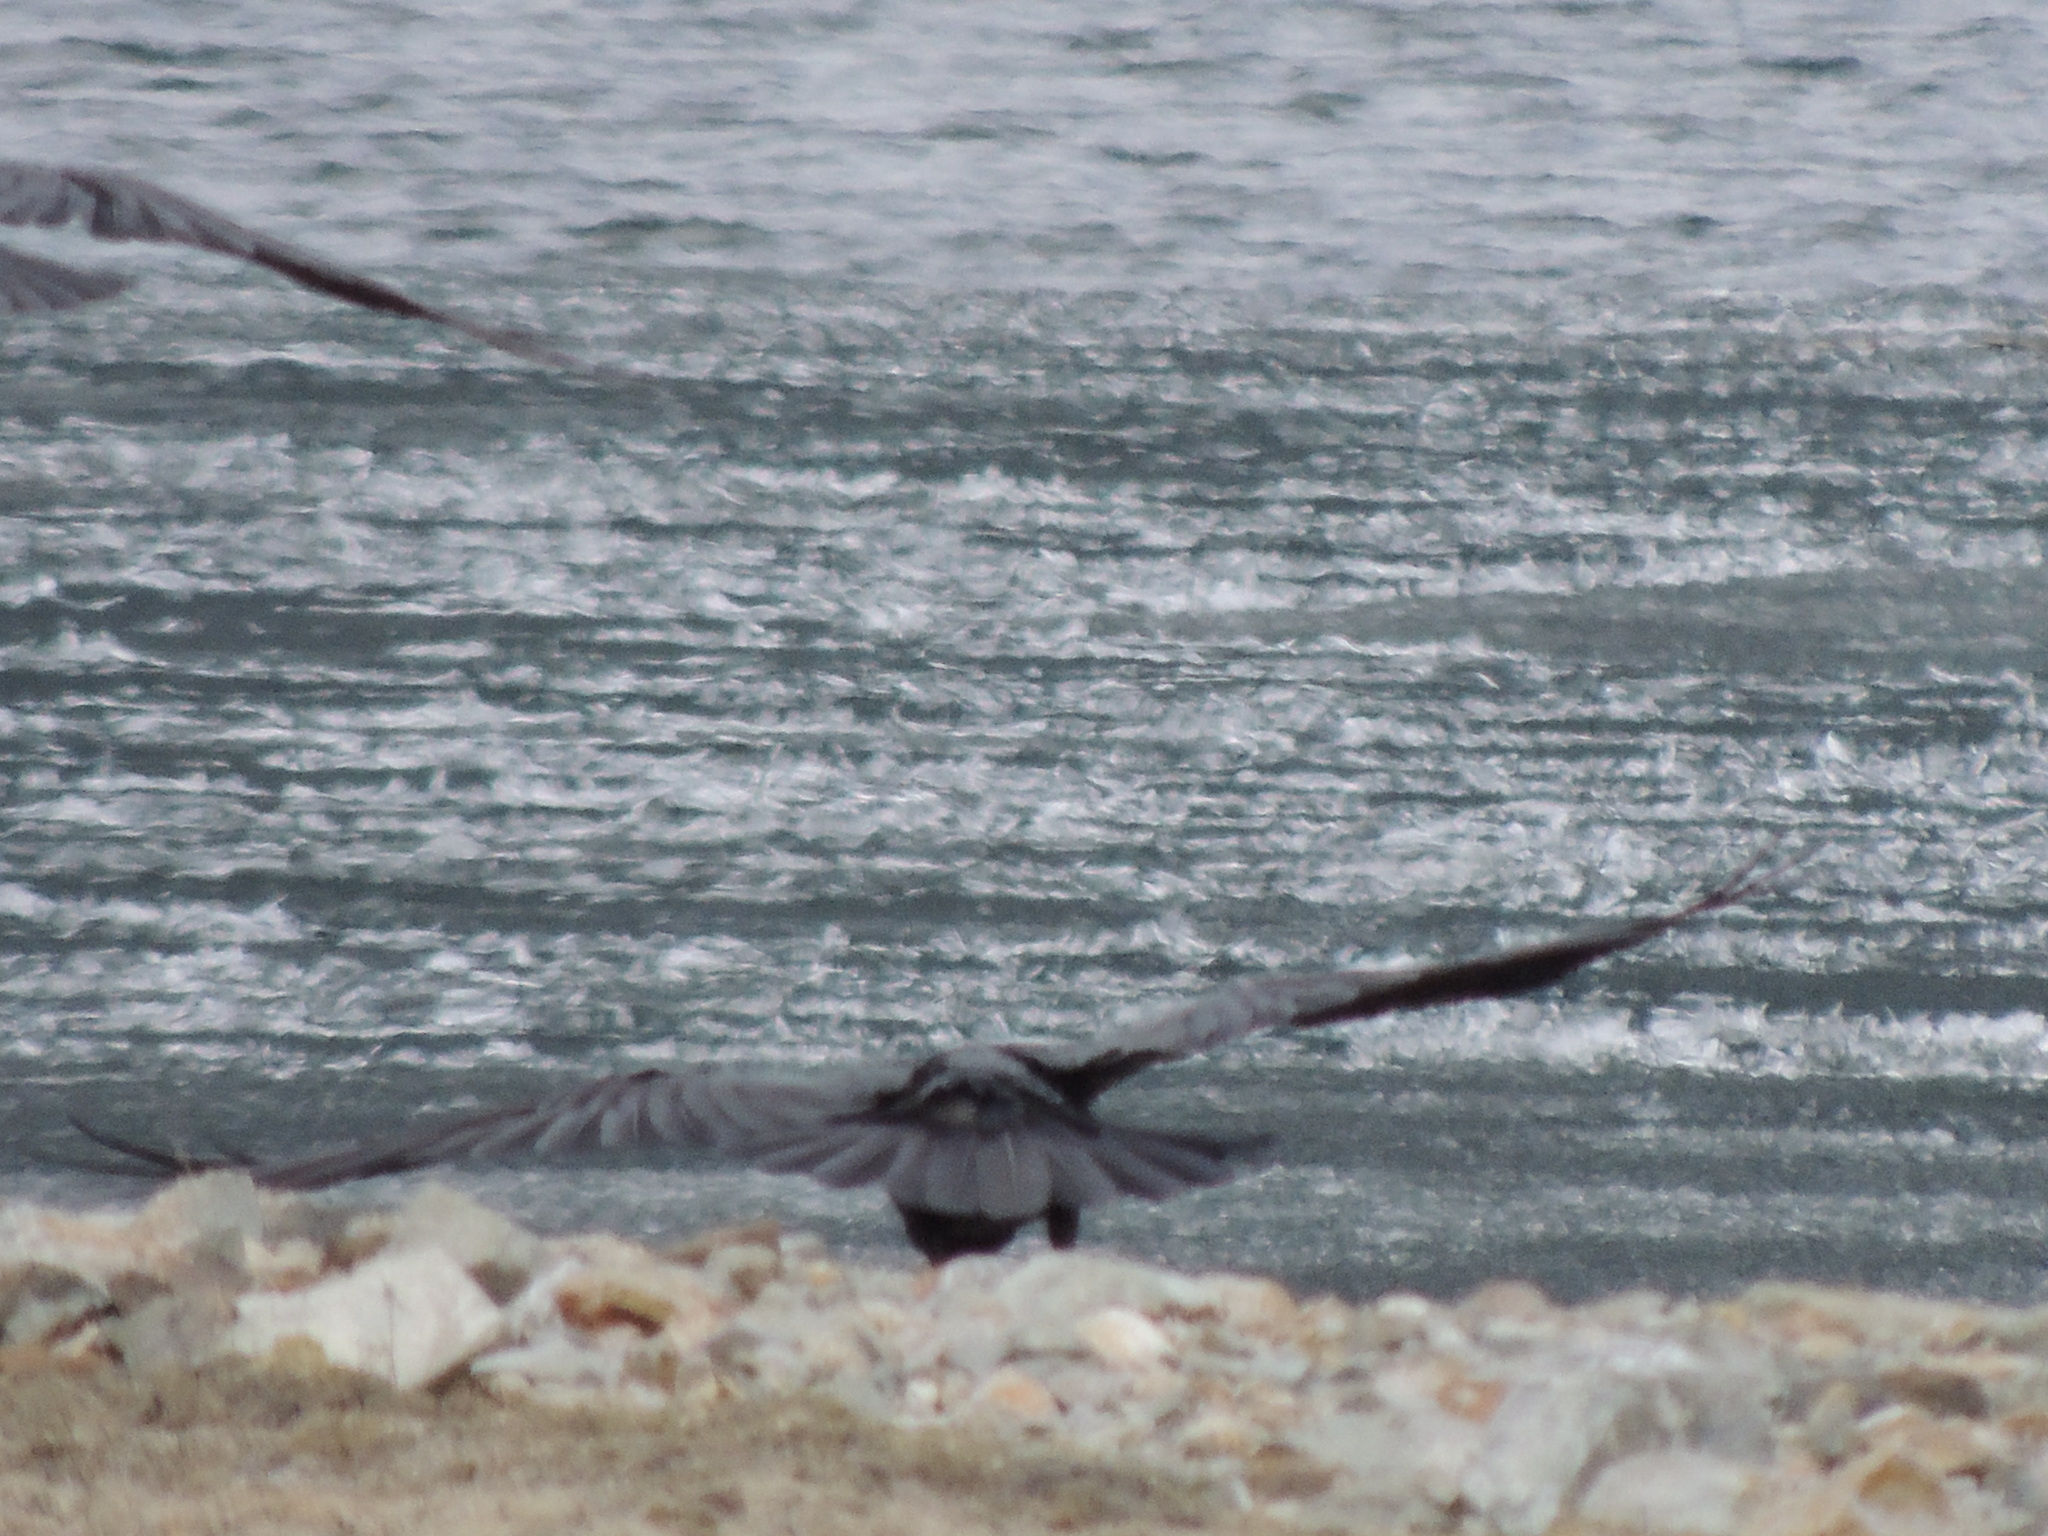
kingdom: Animalia
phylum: Chordata
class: Aves
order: Passeriformes
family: Corvidae
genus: Corvus
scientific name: Corvus corax
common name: Common raven
